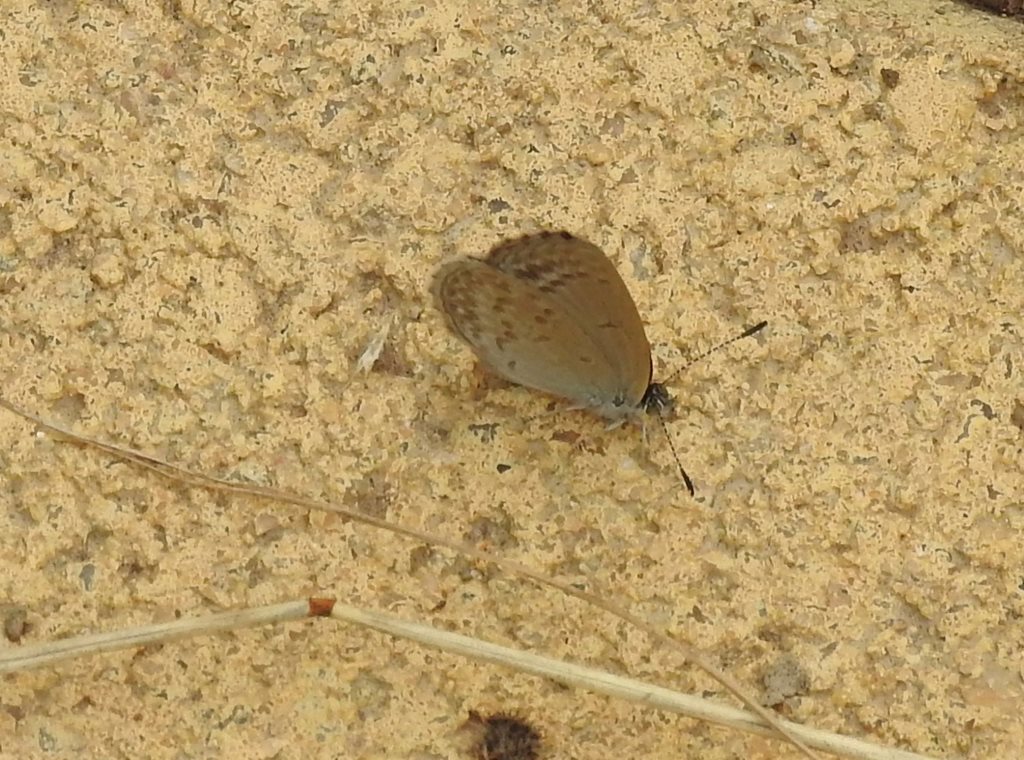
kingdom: Animalia
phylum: Arthropoda
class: Insecta
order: Lepidoptera
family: Lycaenidae
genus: Zizina
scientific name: Zizina labradus
